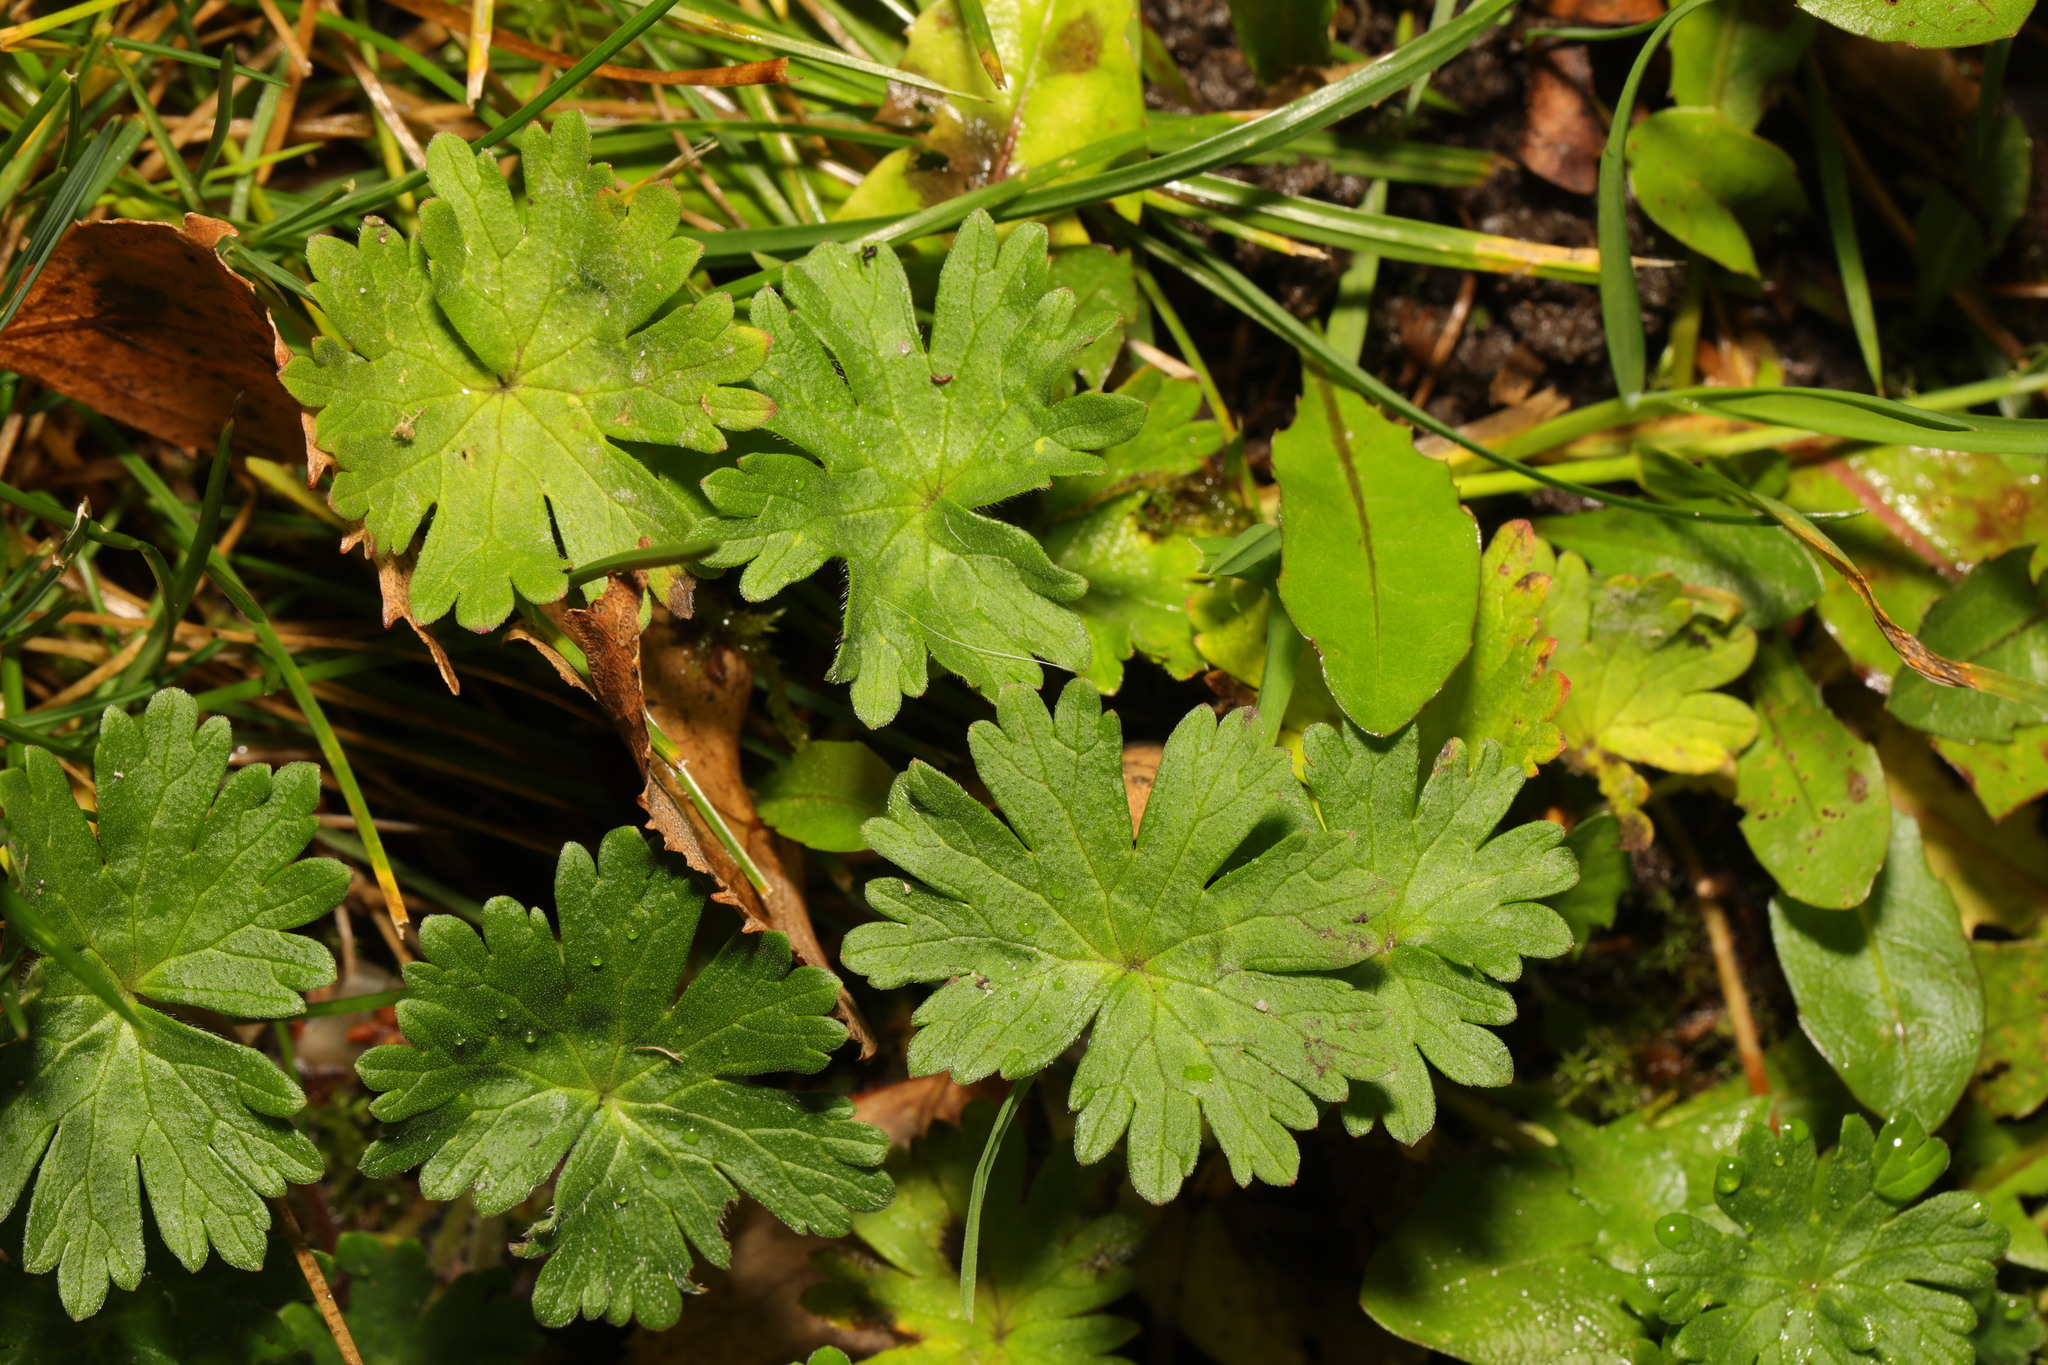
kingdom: Plantae
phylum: Tracheophyta
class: Magnoliopsida
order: Geraniales
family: Geraniaceae
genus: Geranium
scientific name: Geranium molle
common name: Dove's-foot crane's-bill
